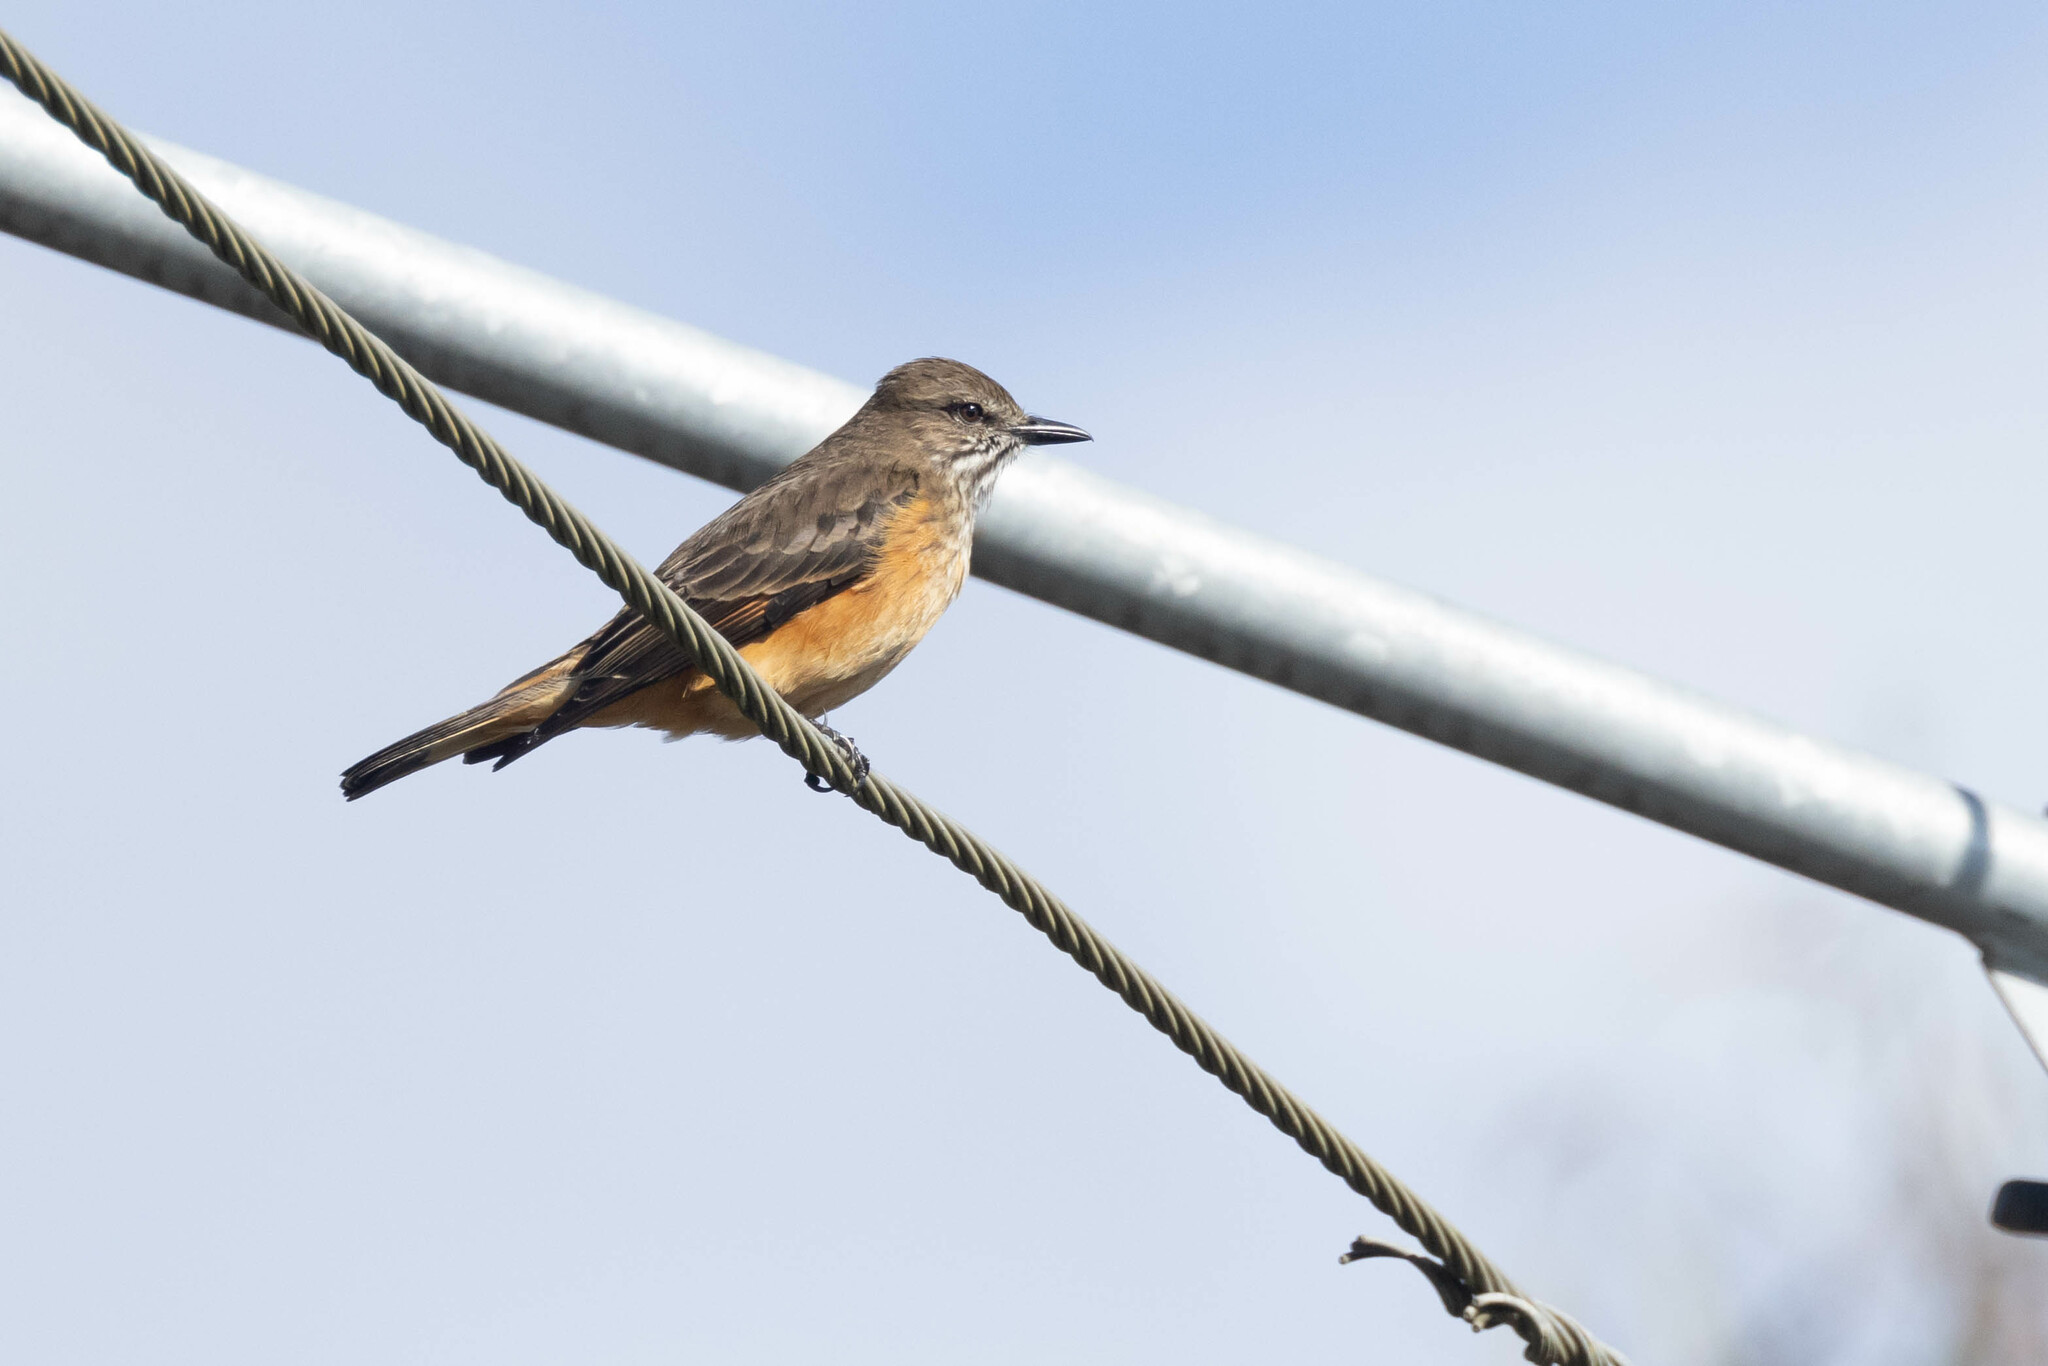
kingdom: Animalia
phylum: Chordata
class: Aves
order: Passeriformes
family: Tyrannidae
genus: Myiotheretes
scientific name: Myiotheretes striaticollis
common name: Streak-throated bush tyrant
